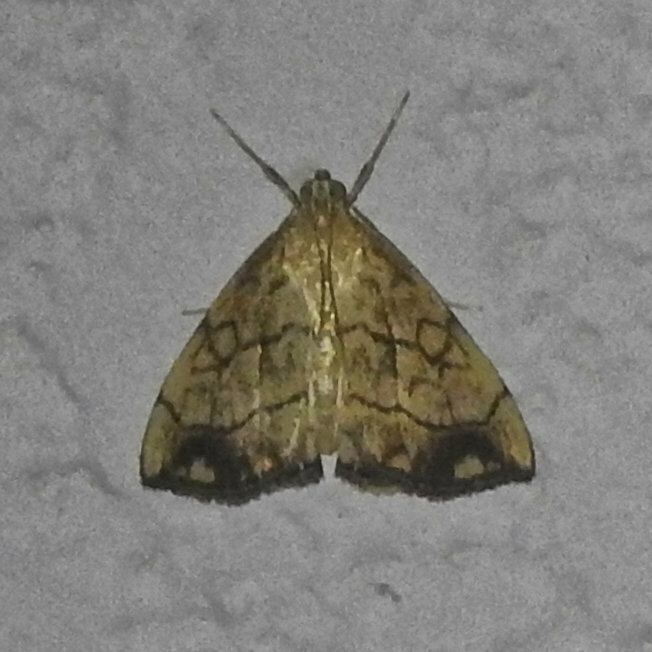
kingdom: Animalia
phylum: Arthropoda
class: Insecta
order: Lepidoptera
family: Crambidae
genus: Evergestis
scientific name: Evergestis pallidata
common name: Chequered pearl
